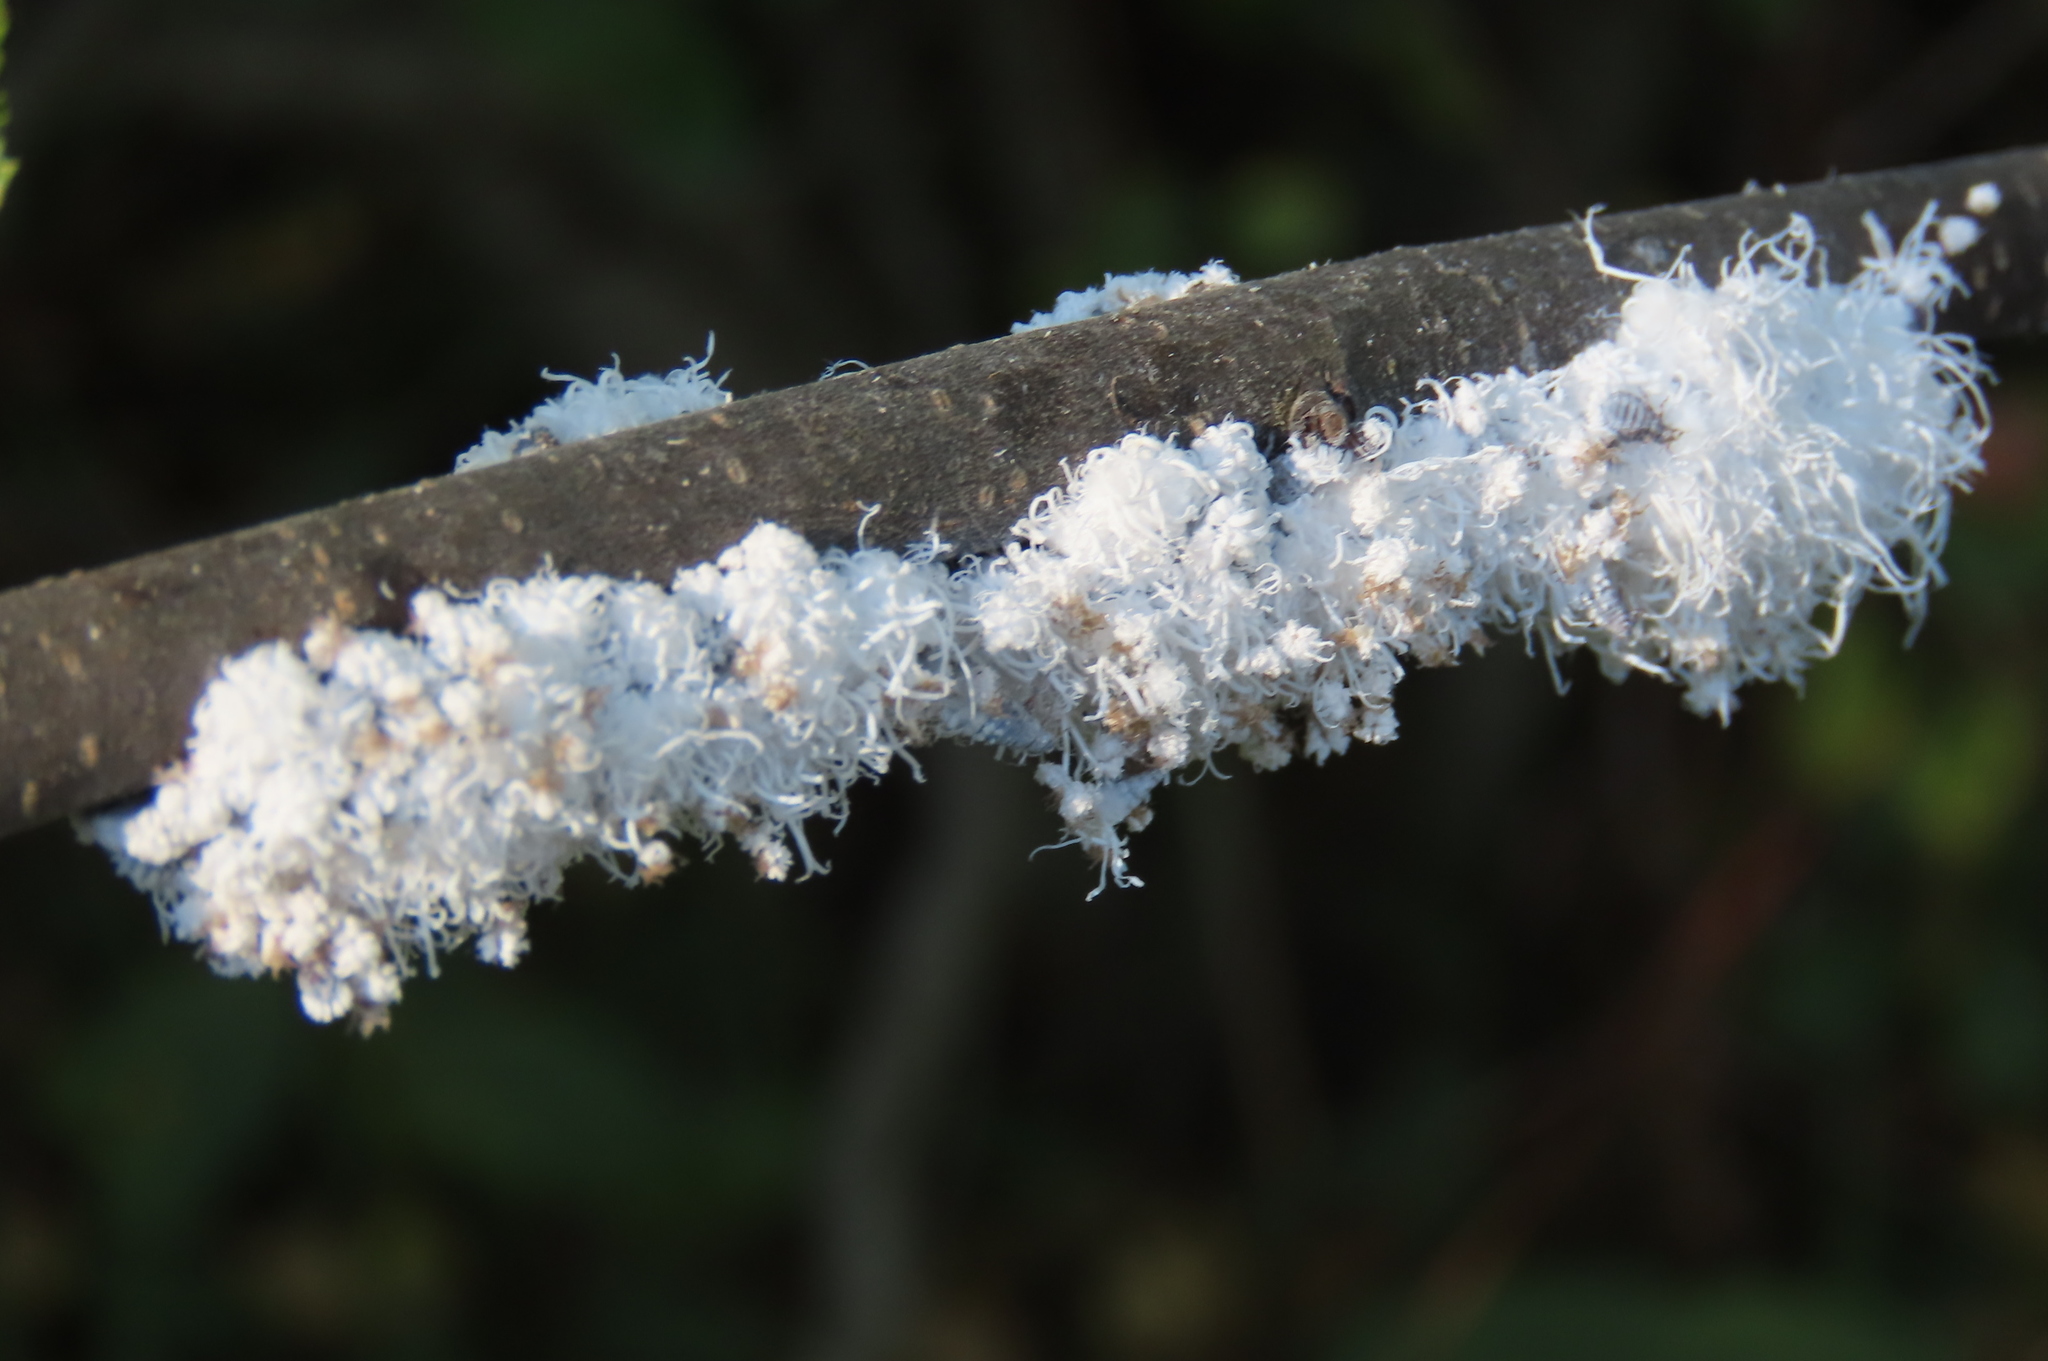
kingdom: Animalia
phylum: Arthropoda
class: Insecta
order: Hemiptera
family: Aphididae
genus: Prociphilus
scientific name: Prociphilus tessellatus
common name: Woolly alder aphid
